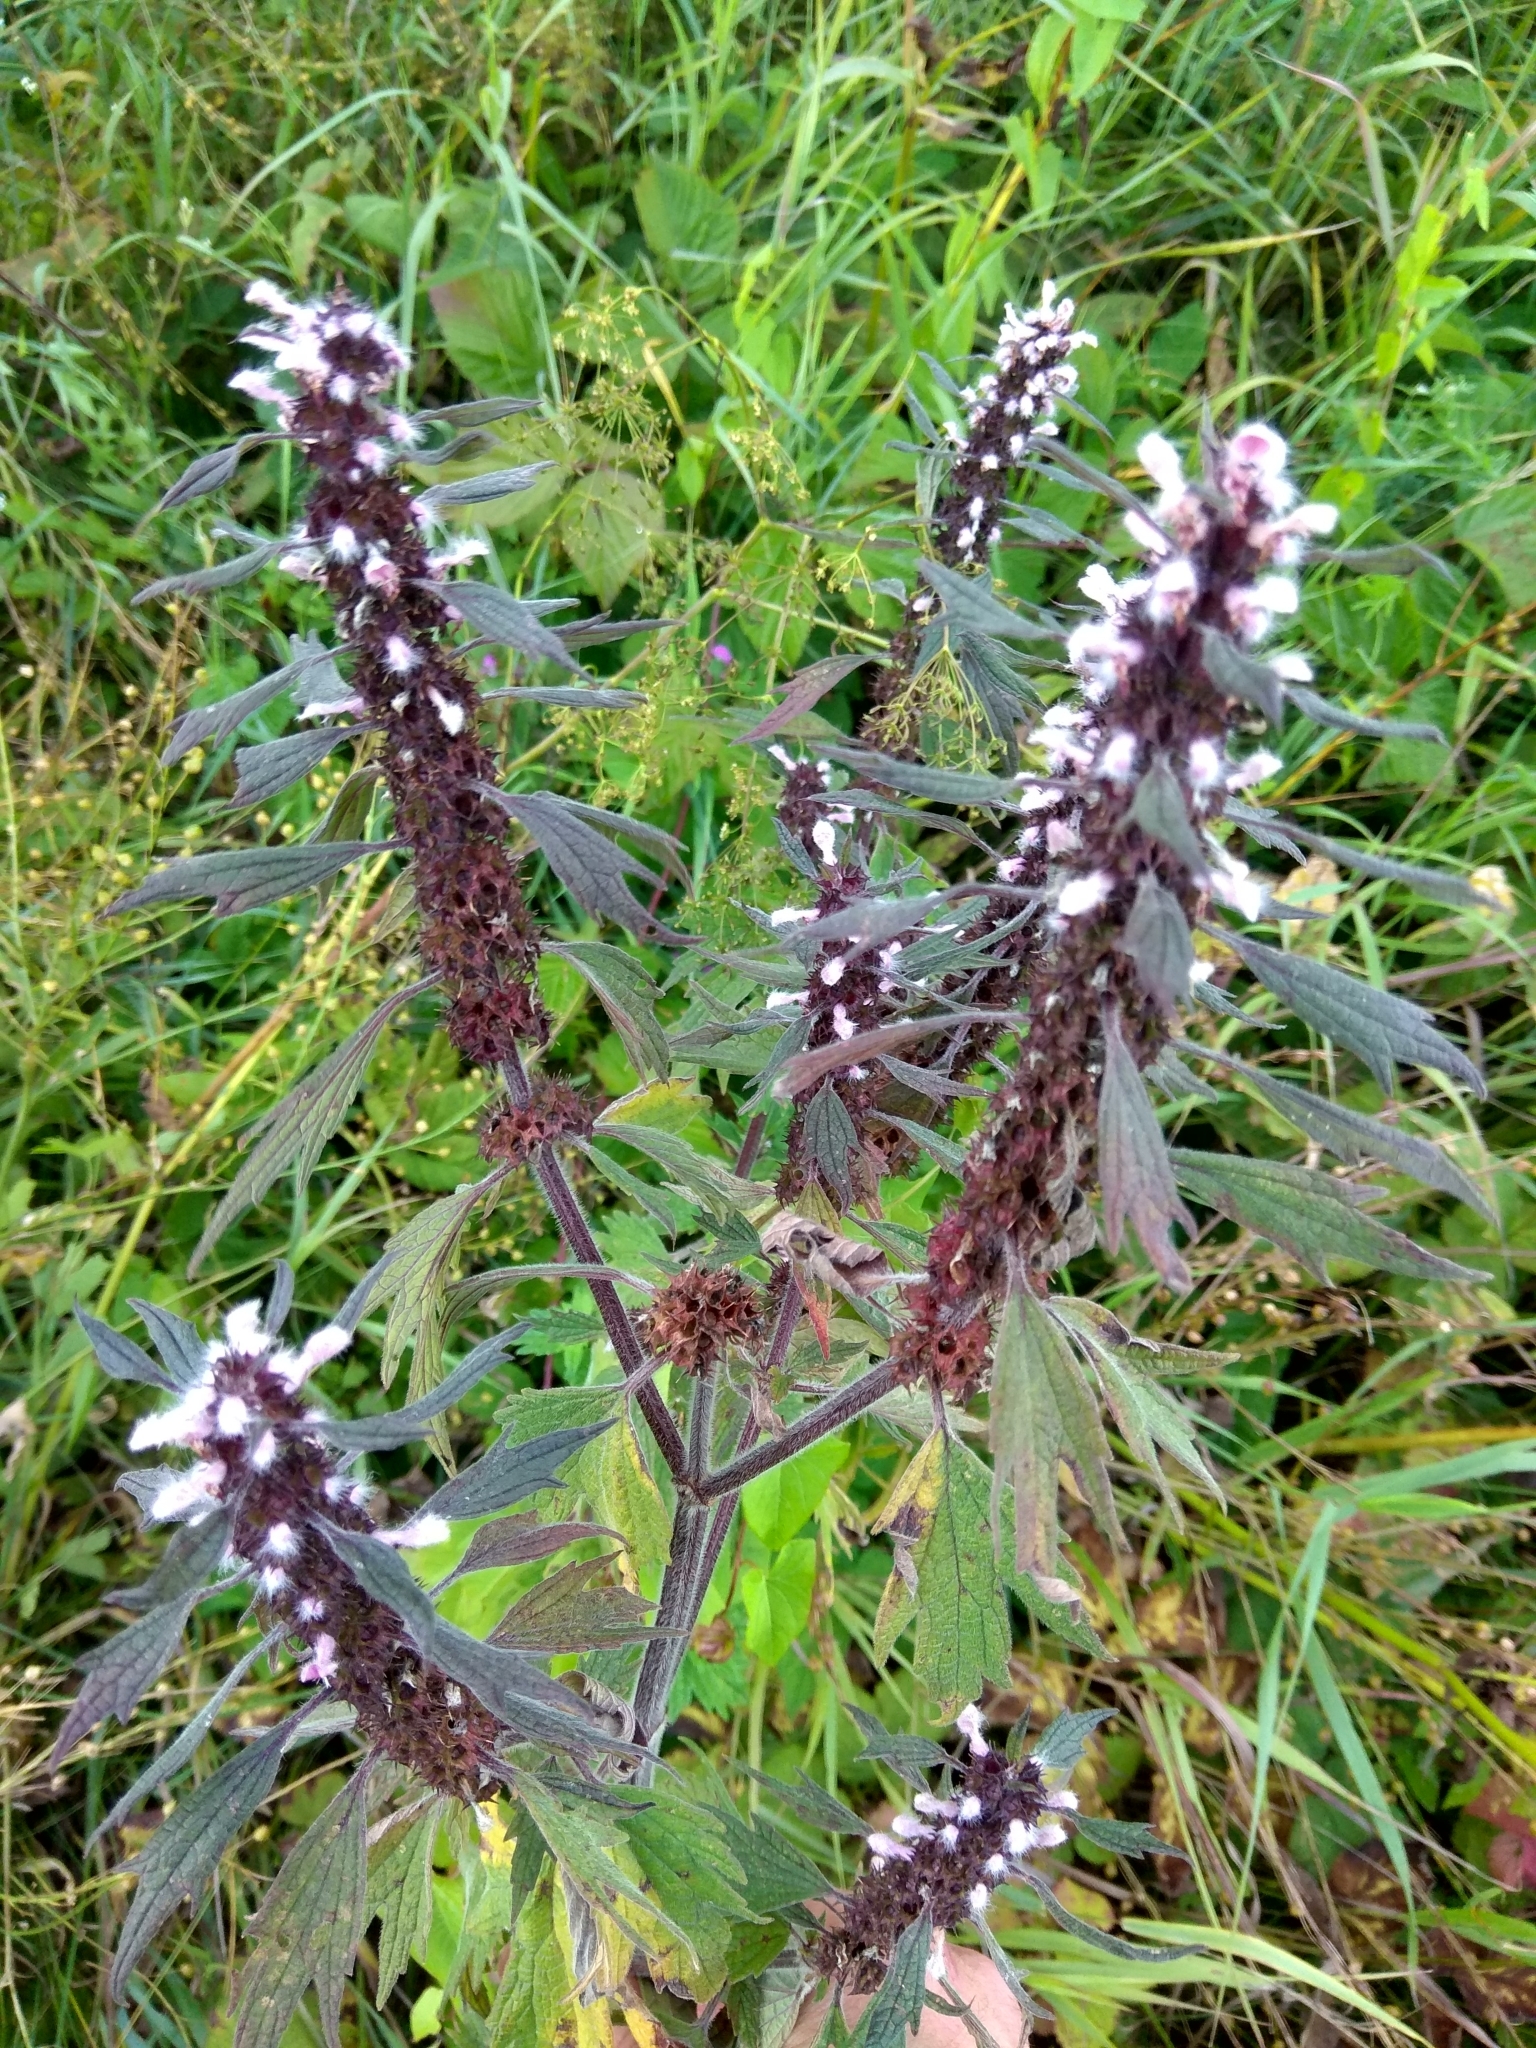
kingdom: Plantae
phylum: Tracheophyta
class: Magnoliopsida
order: Lamiales
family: Lamiaceae
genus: Leonurus
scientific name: Leonurus quinquelobatus
